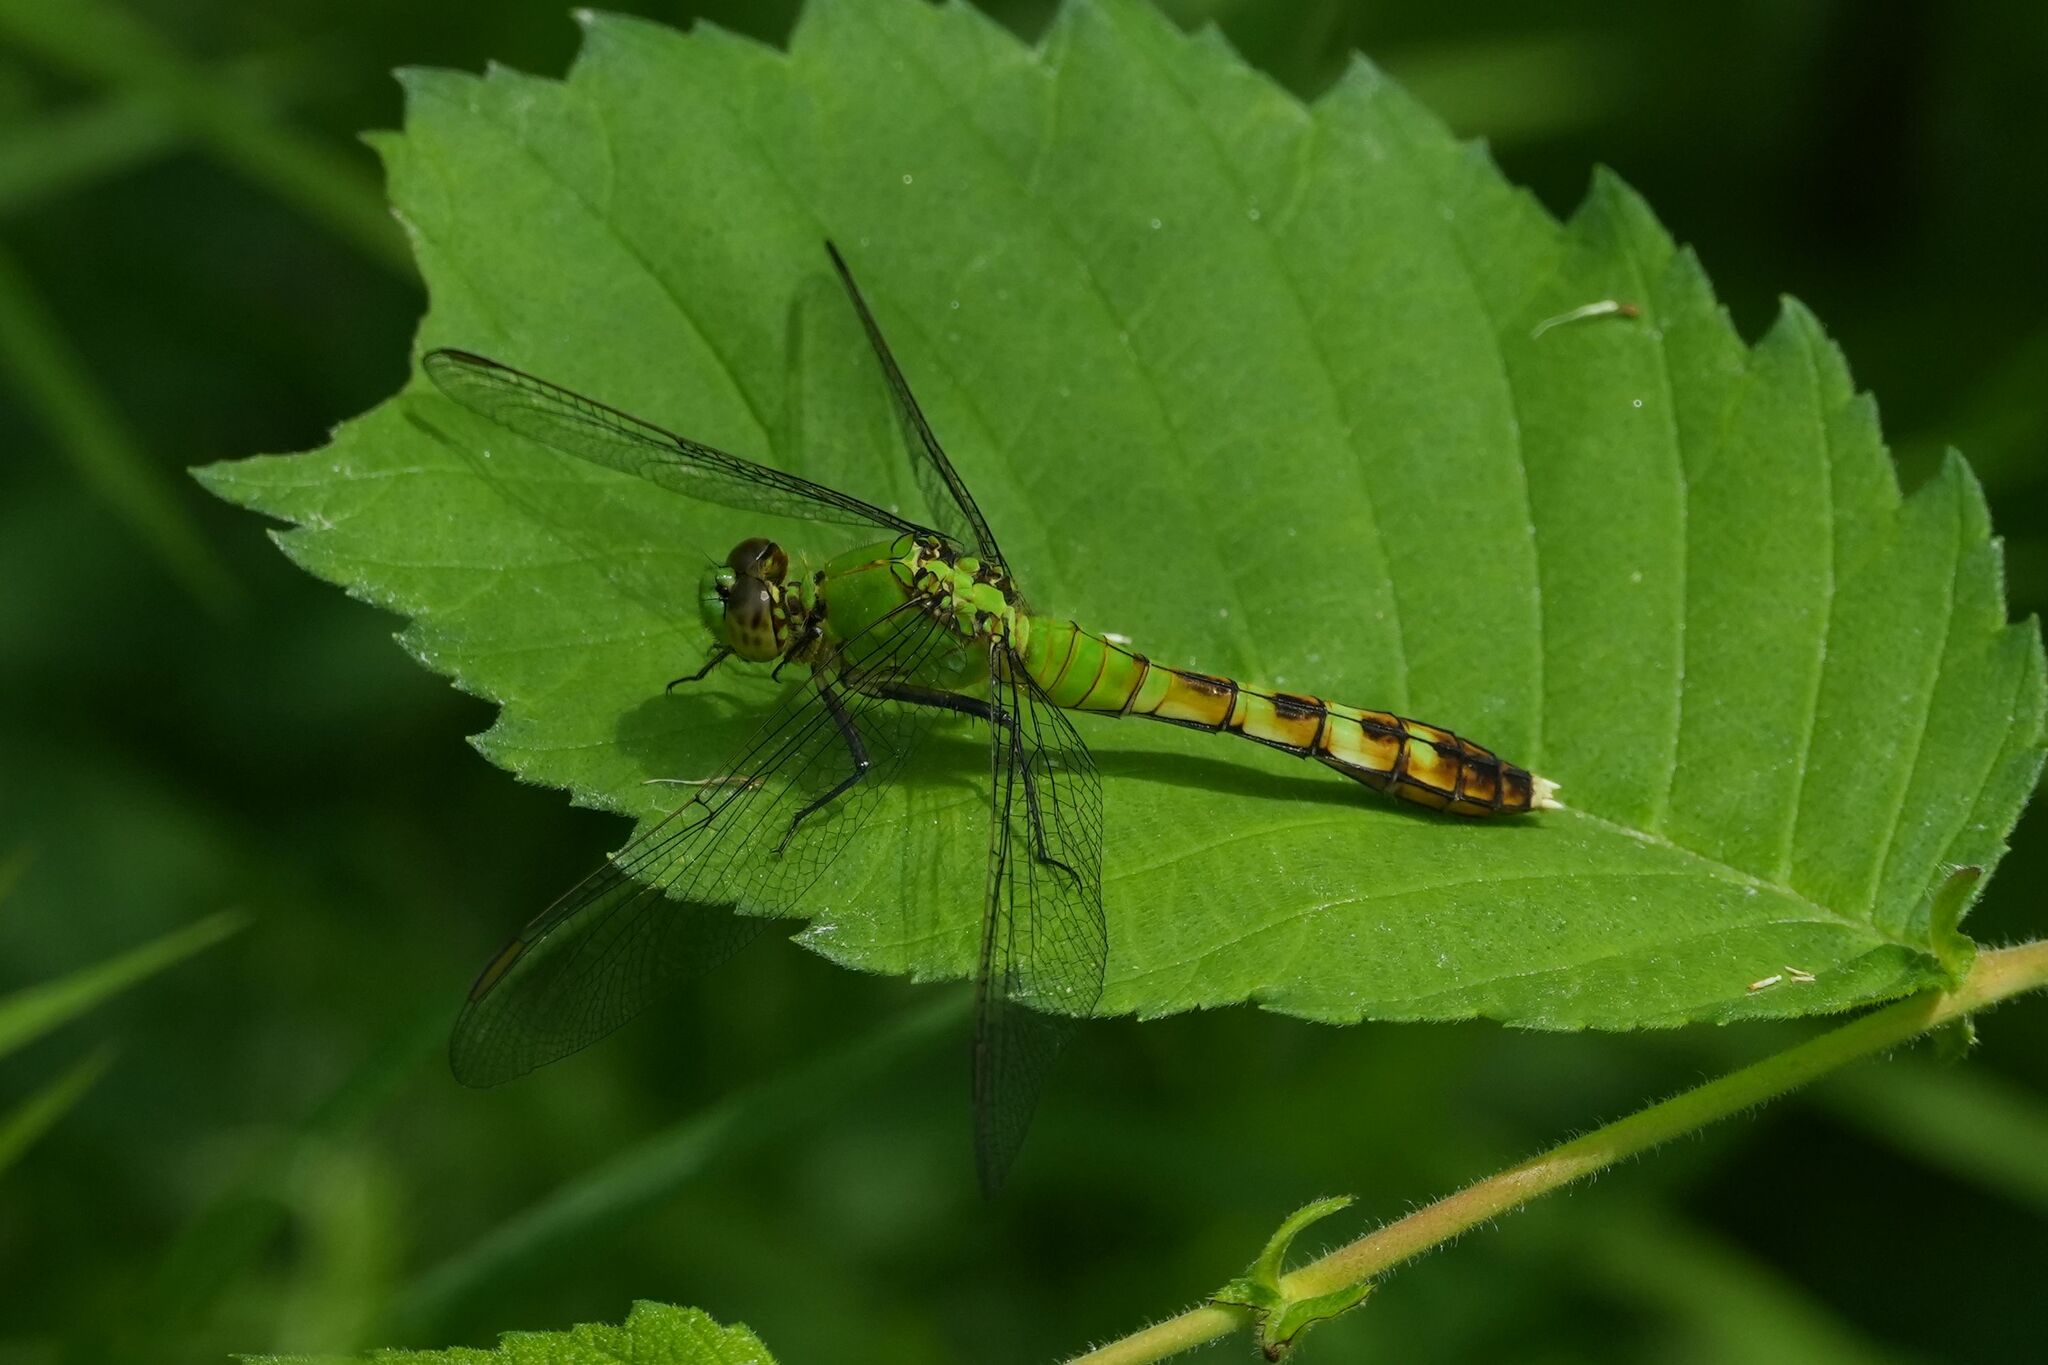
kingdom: Animalia
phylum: Arthropoda
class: Insecta
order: Odonata
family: Libellulidae
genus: Erythemis
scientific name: Erythemis simplicicollis
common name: Eastern pondhawk
